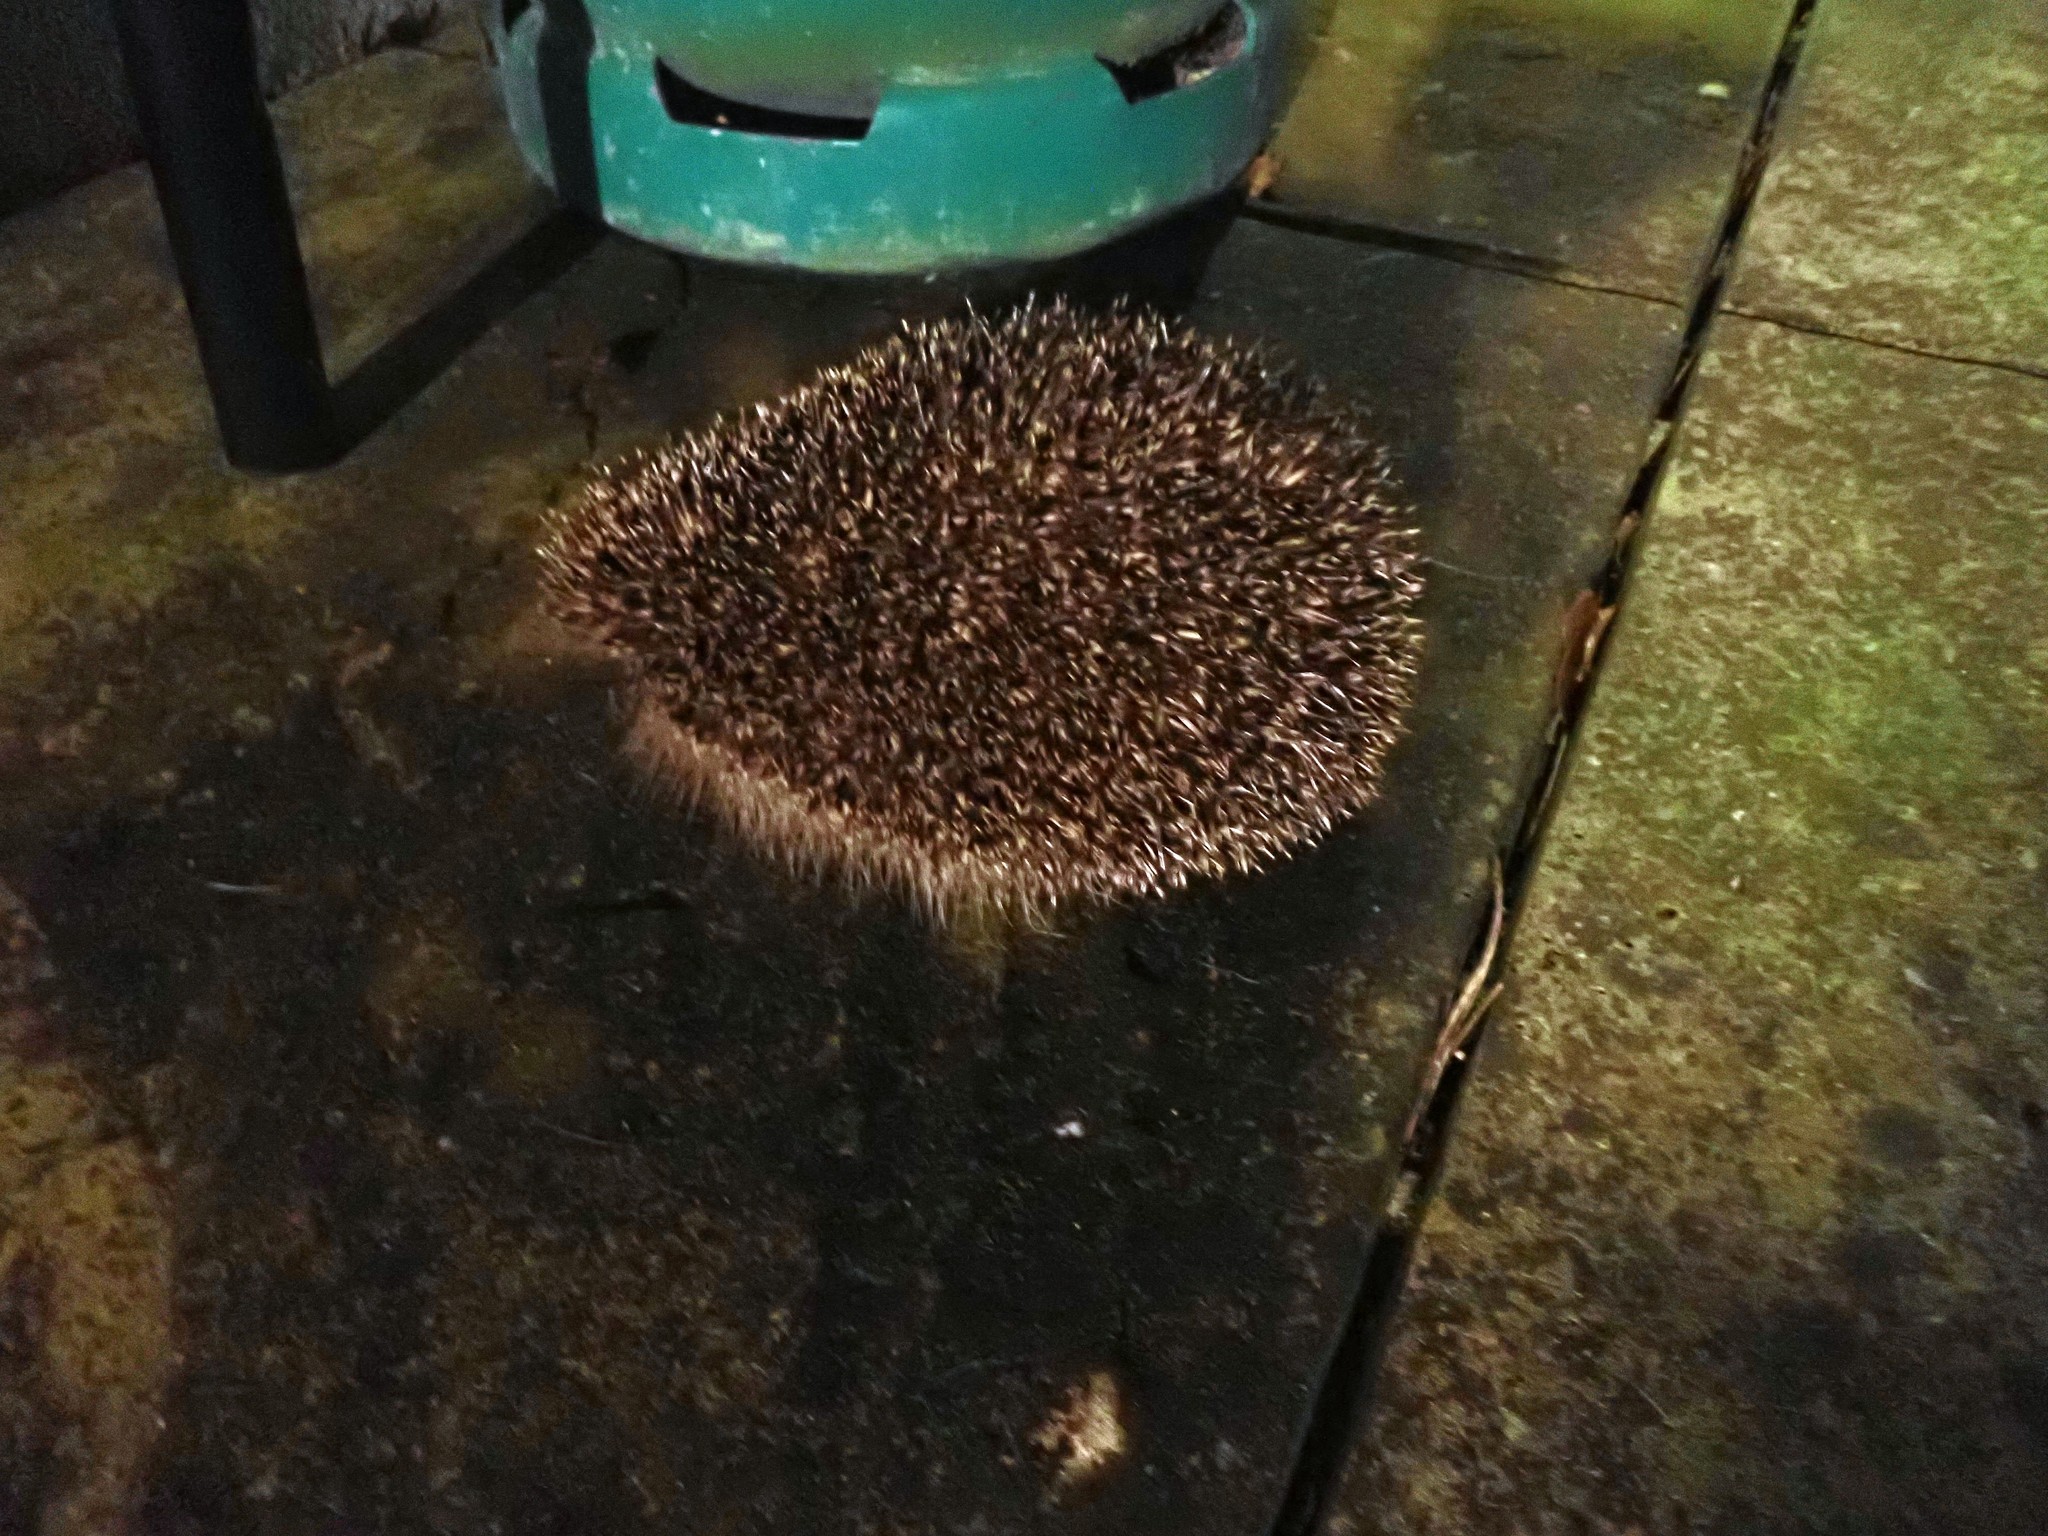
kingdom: Animalia
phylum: Chordata
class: Mammalia
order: Erinaceomorpha
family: Erinaceidae
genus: Erinaceus
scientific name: Erinaceus europaeus
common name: West european hedgehog
